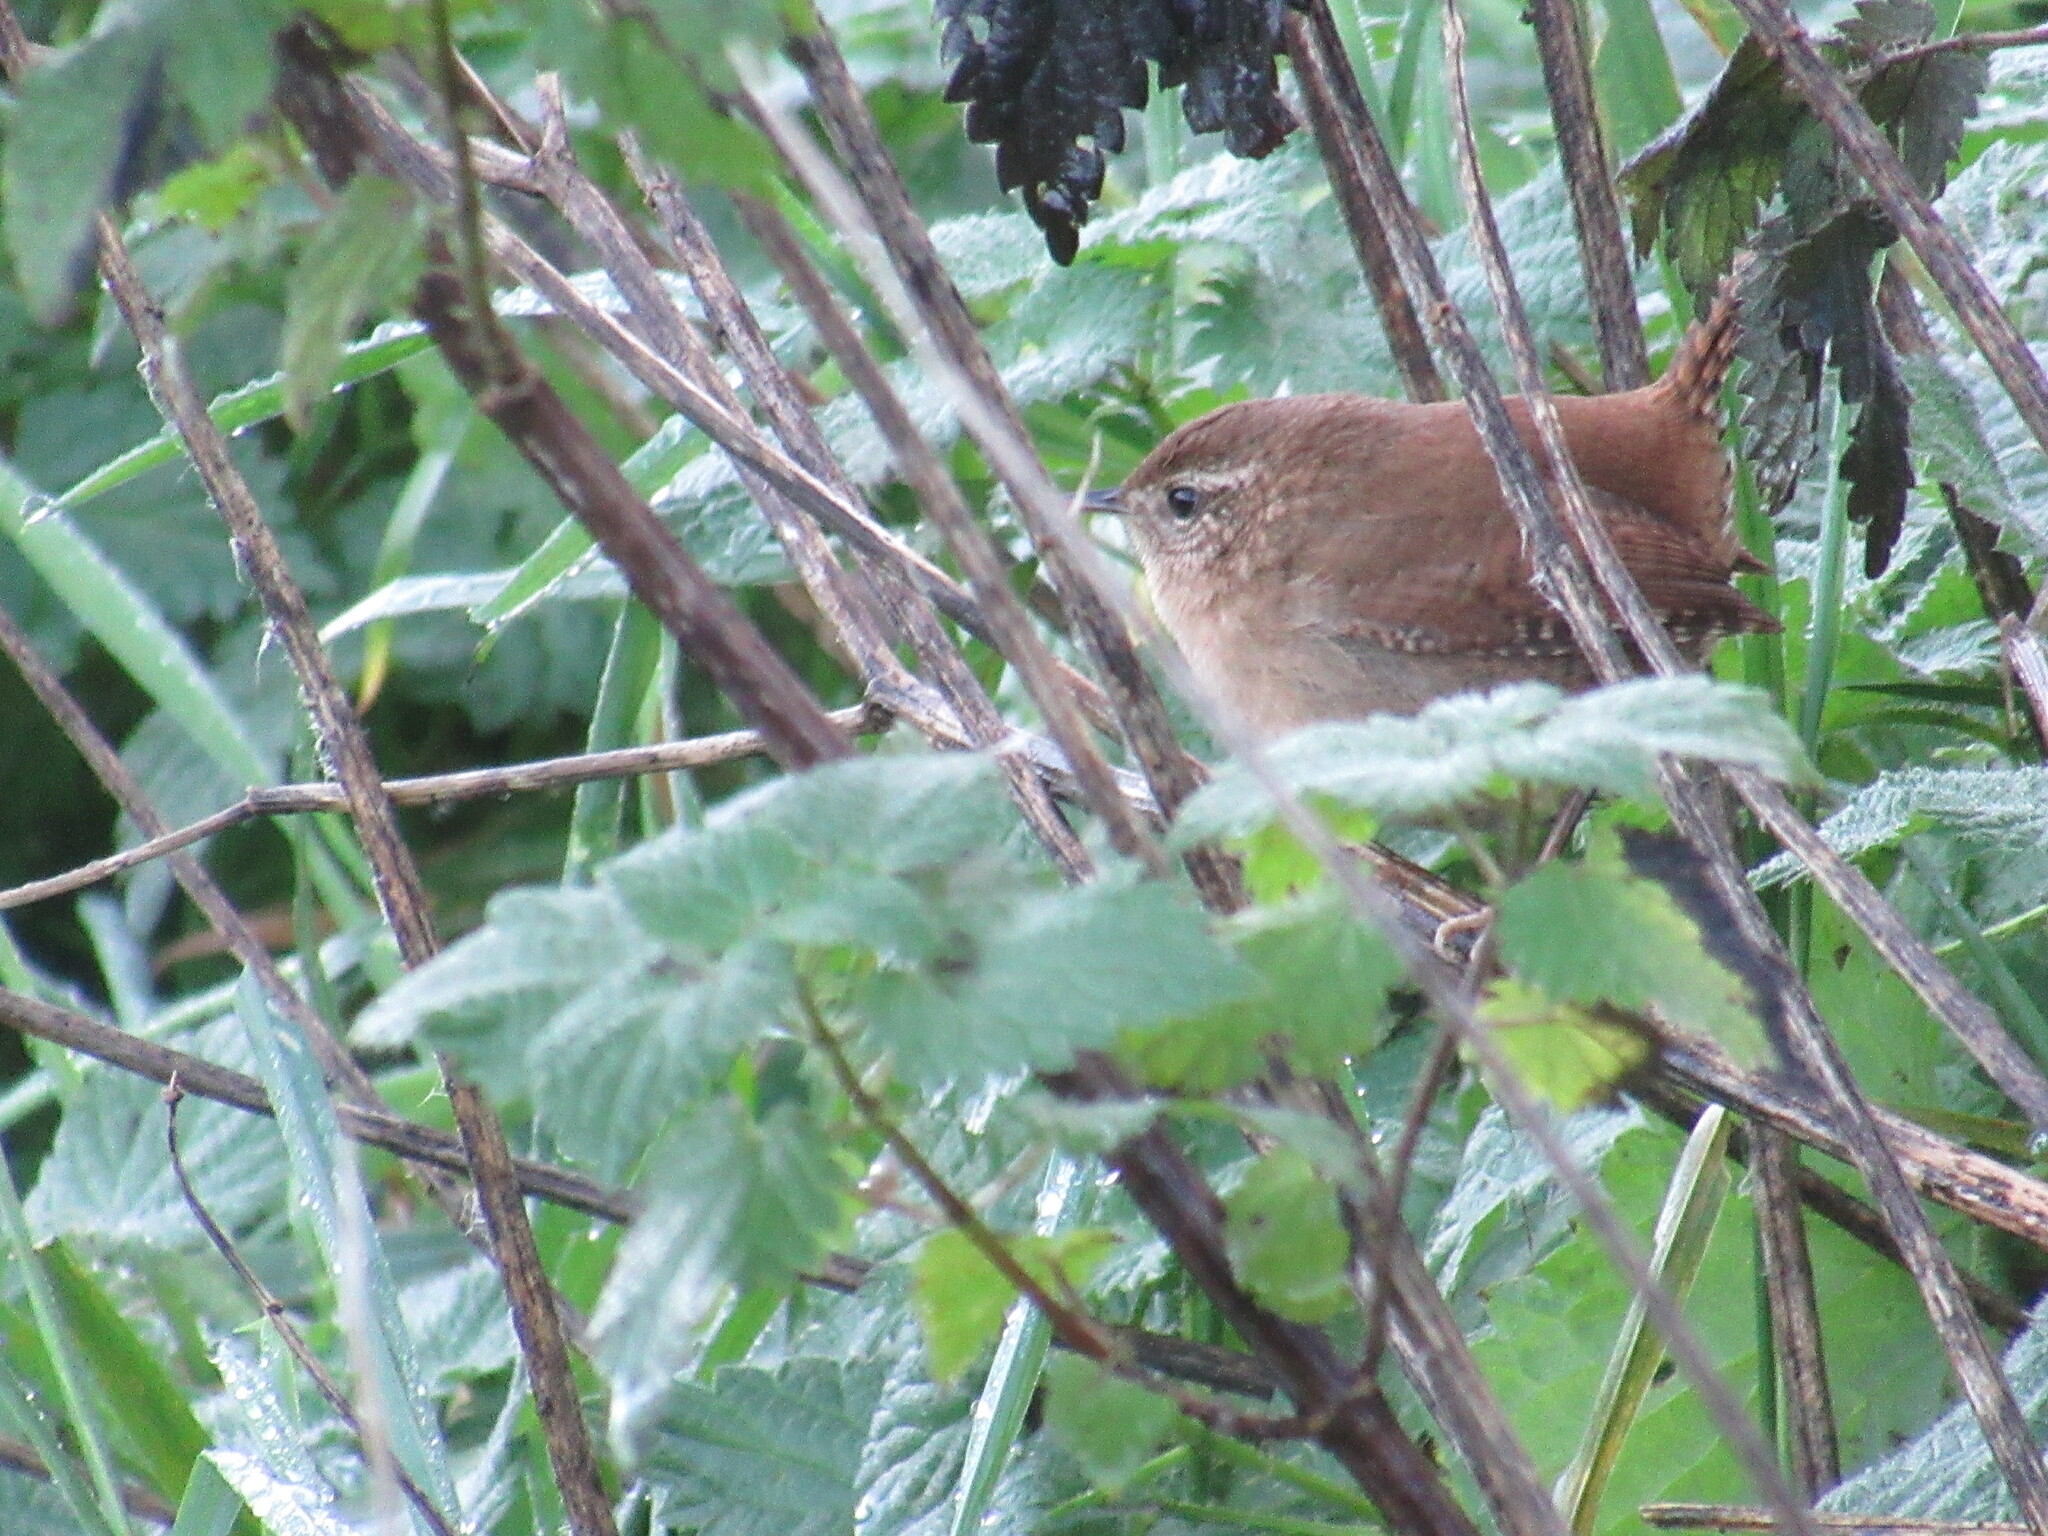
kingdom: Animalia
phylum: Chordata
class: Aves
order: Passeriformes
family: Troglodytidae
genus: Troglodytes
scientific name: Troglodytes troglodytes
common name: Eurasian wren
